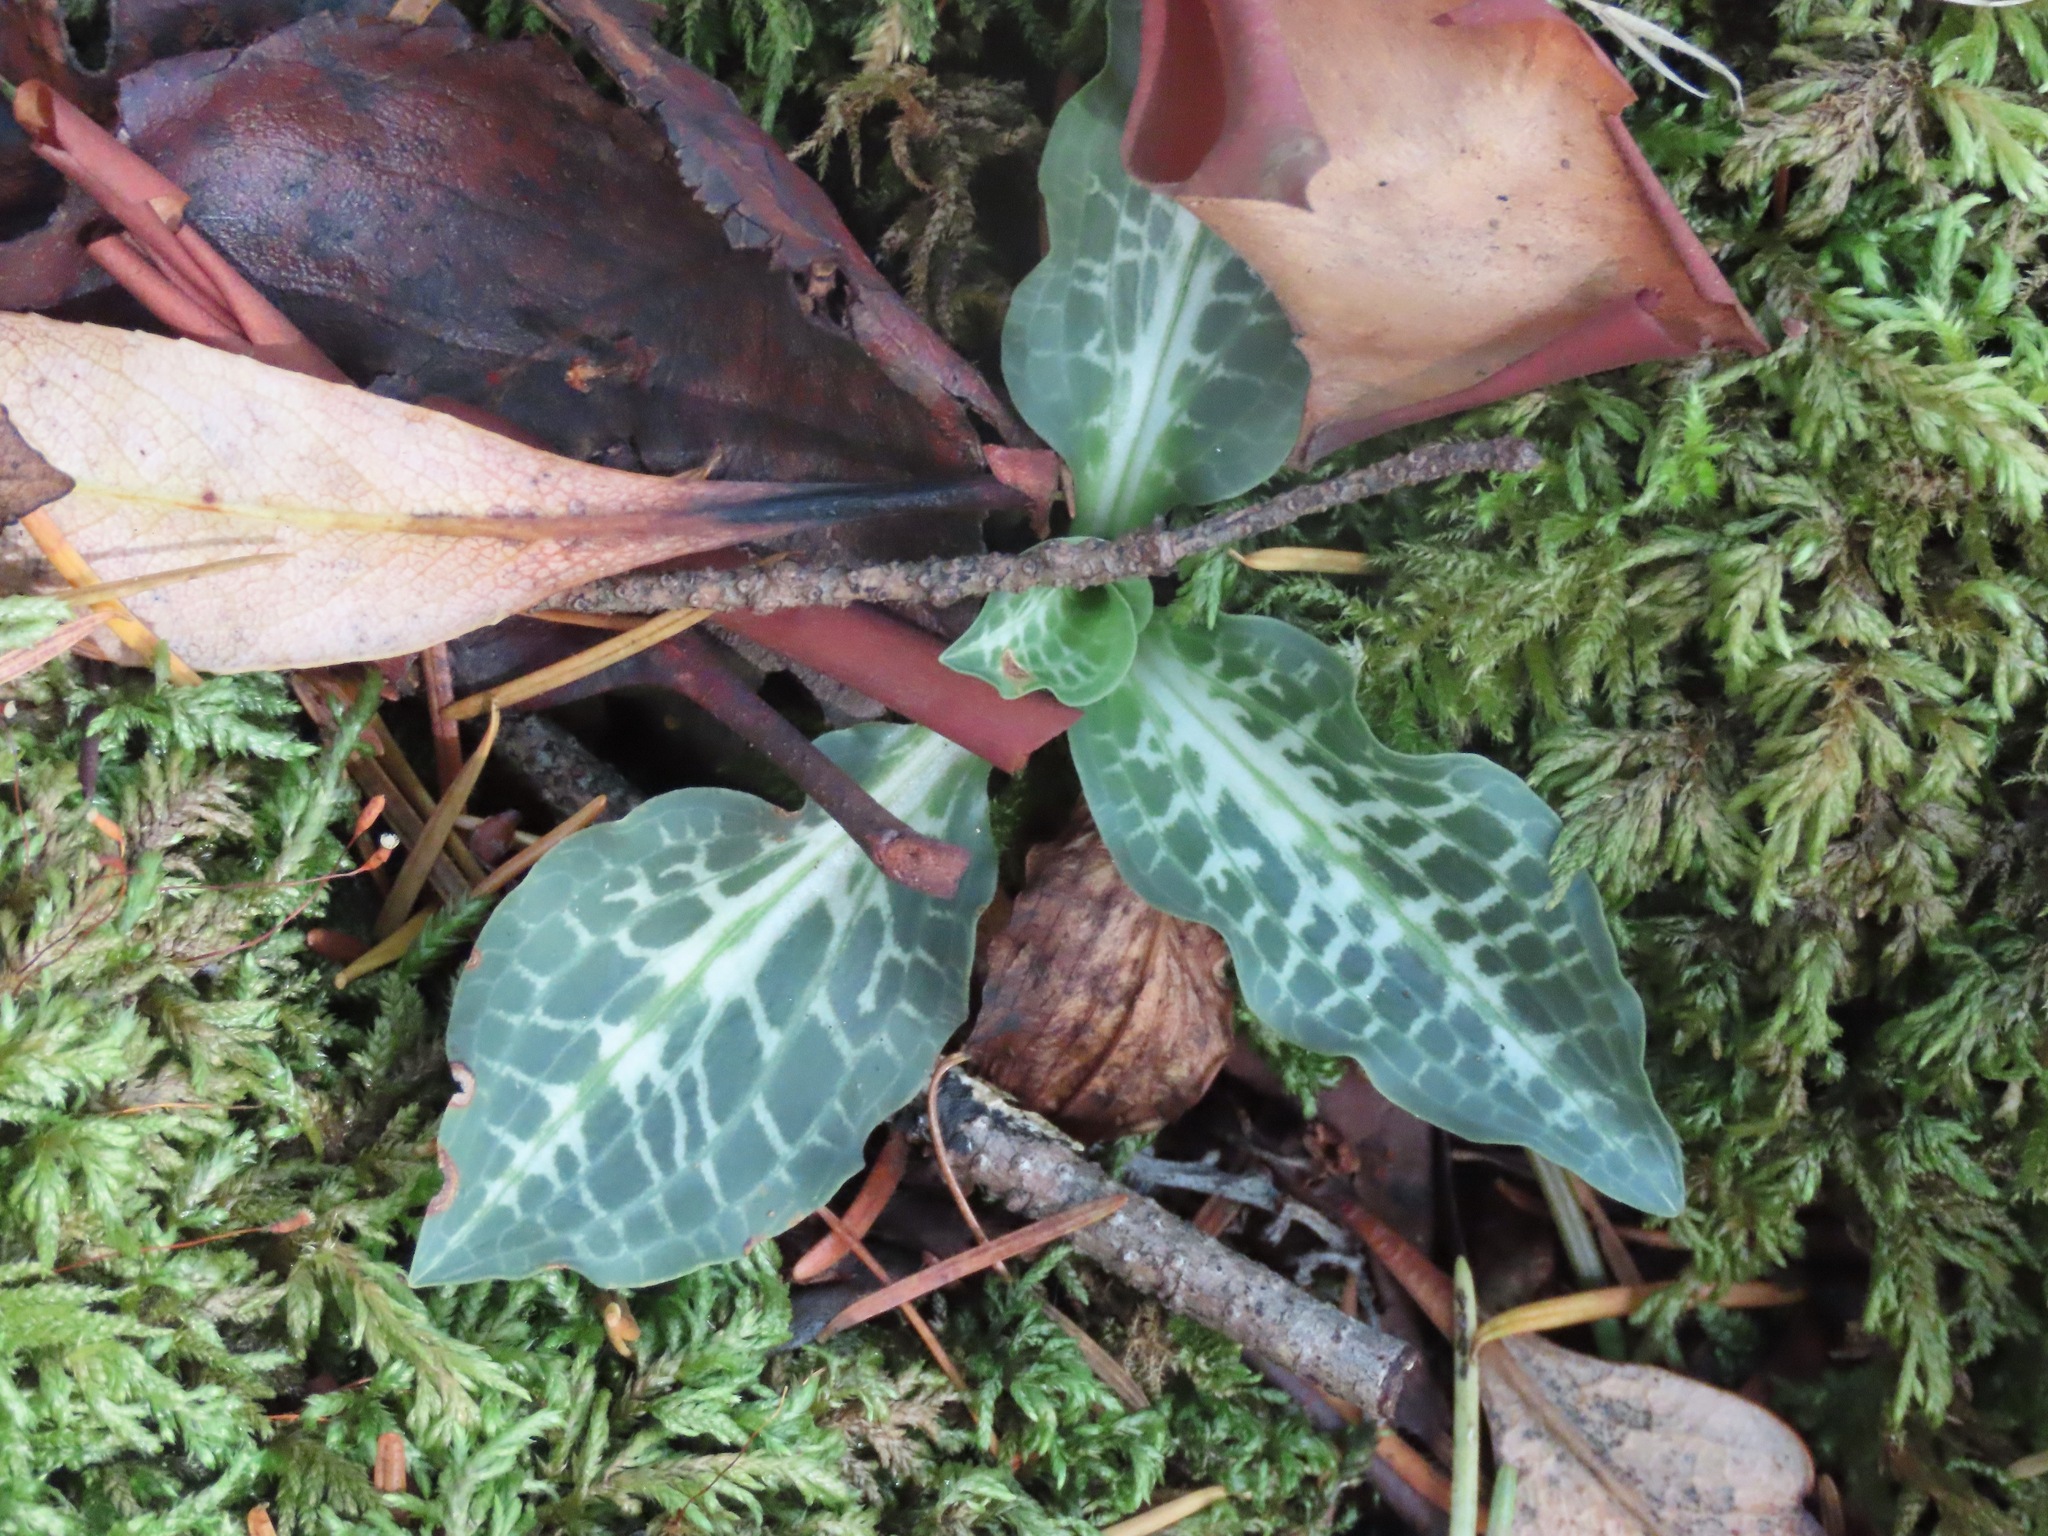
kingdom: Plantae
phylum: Tracheophyta
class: Liliopsida
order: Asparagales
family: Orchidaceae
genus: Goodyera
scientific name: Goodyera oblongifolia
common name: Giant rattlesnake-plantain
